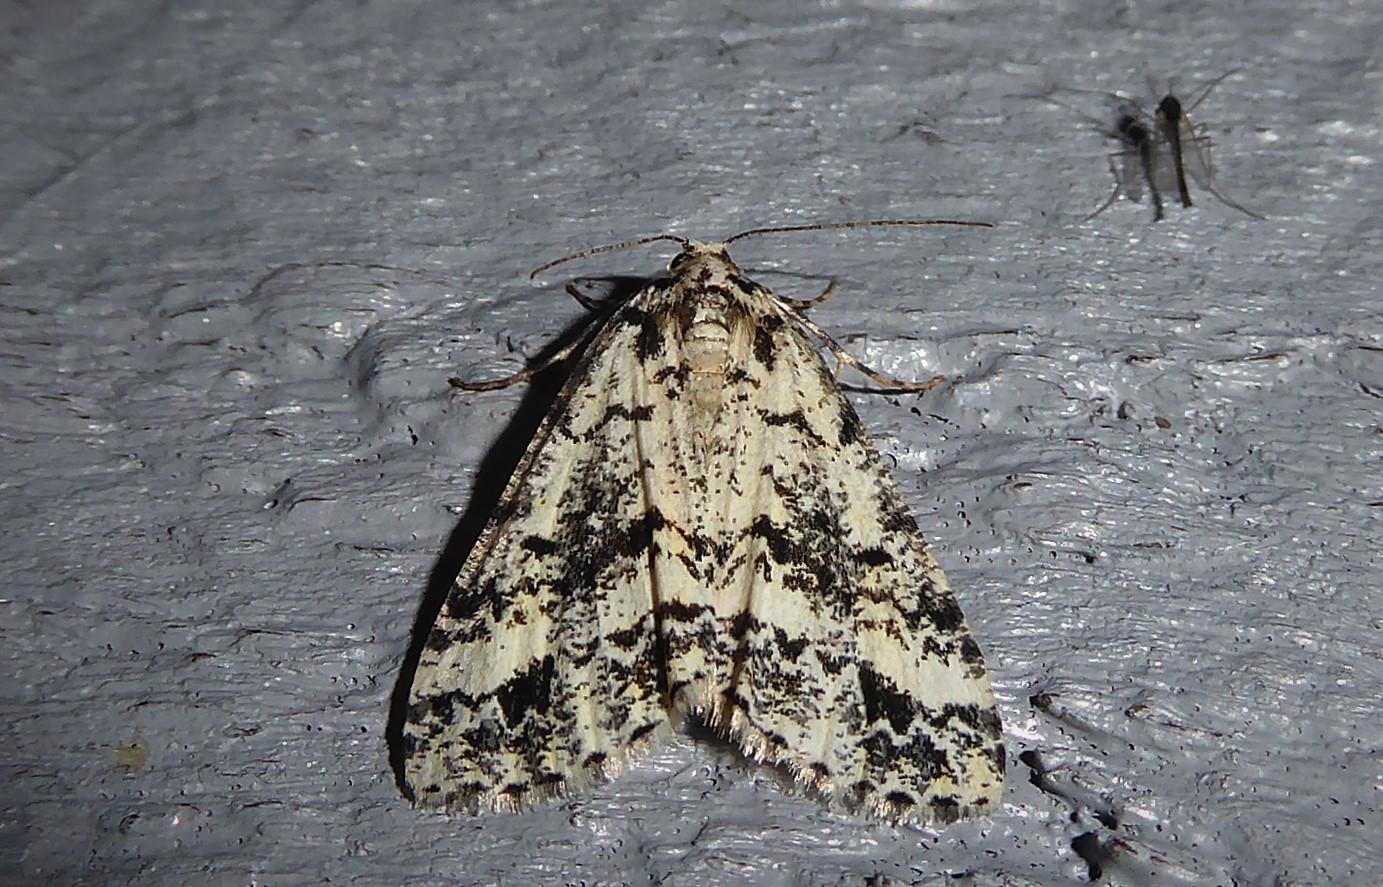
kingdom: Animalia
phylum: Arthropoda
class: Insecta
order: Lepidoptera
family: Geometridae
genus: Pseudocoremia
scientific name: Pseudocoremia leucelaea
